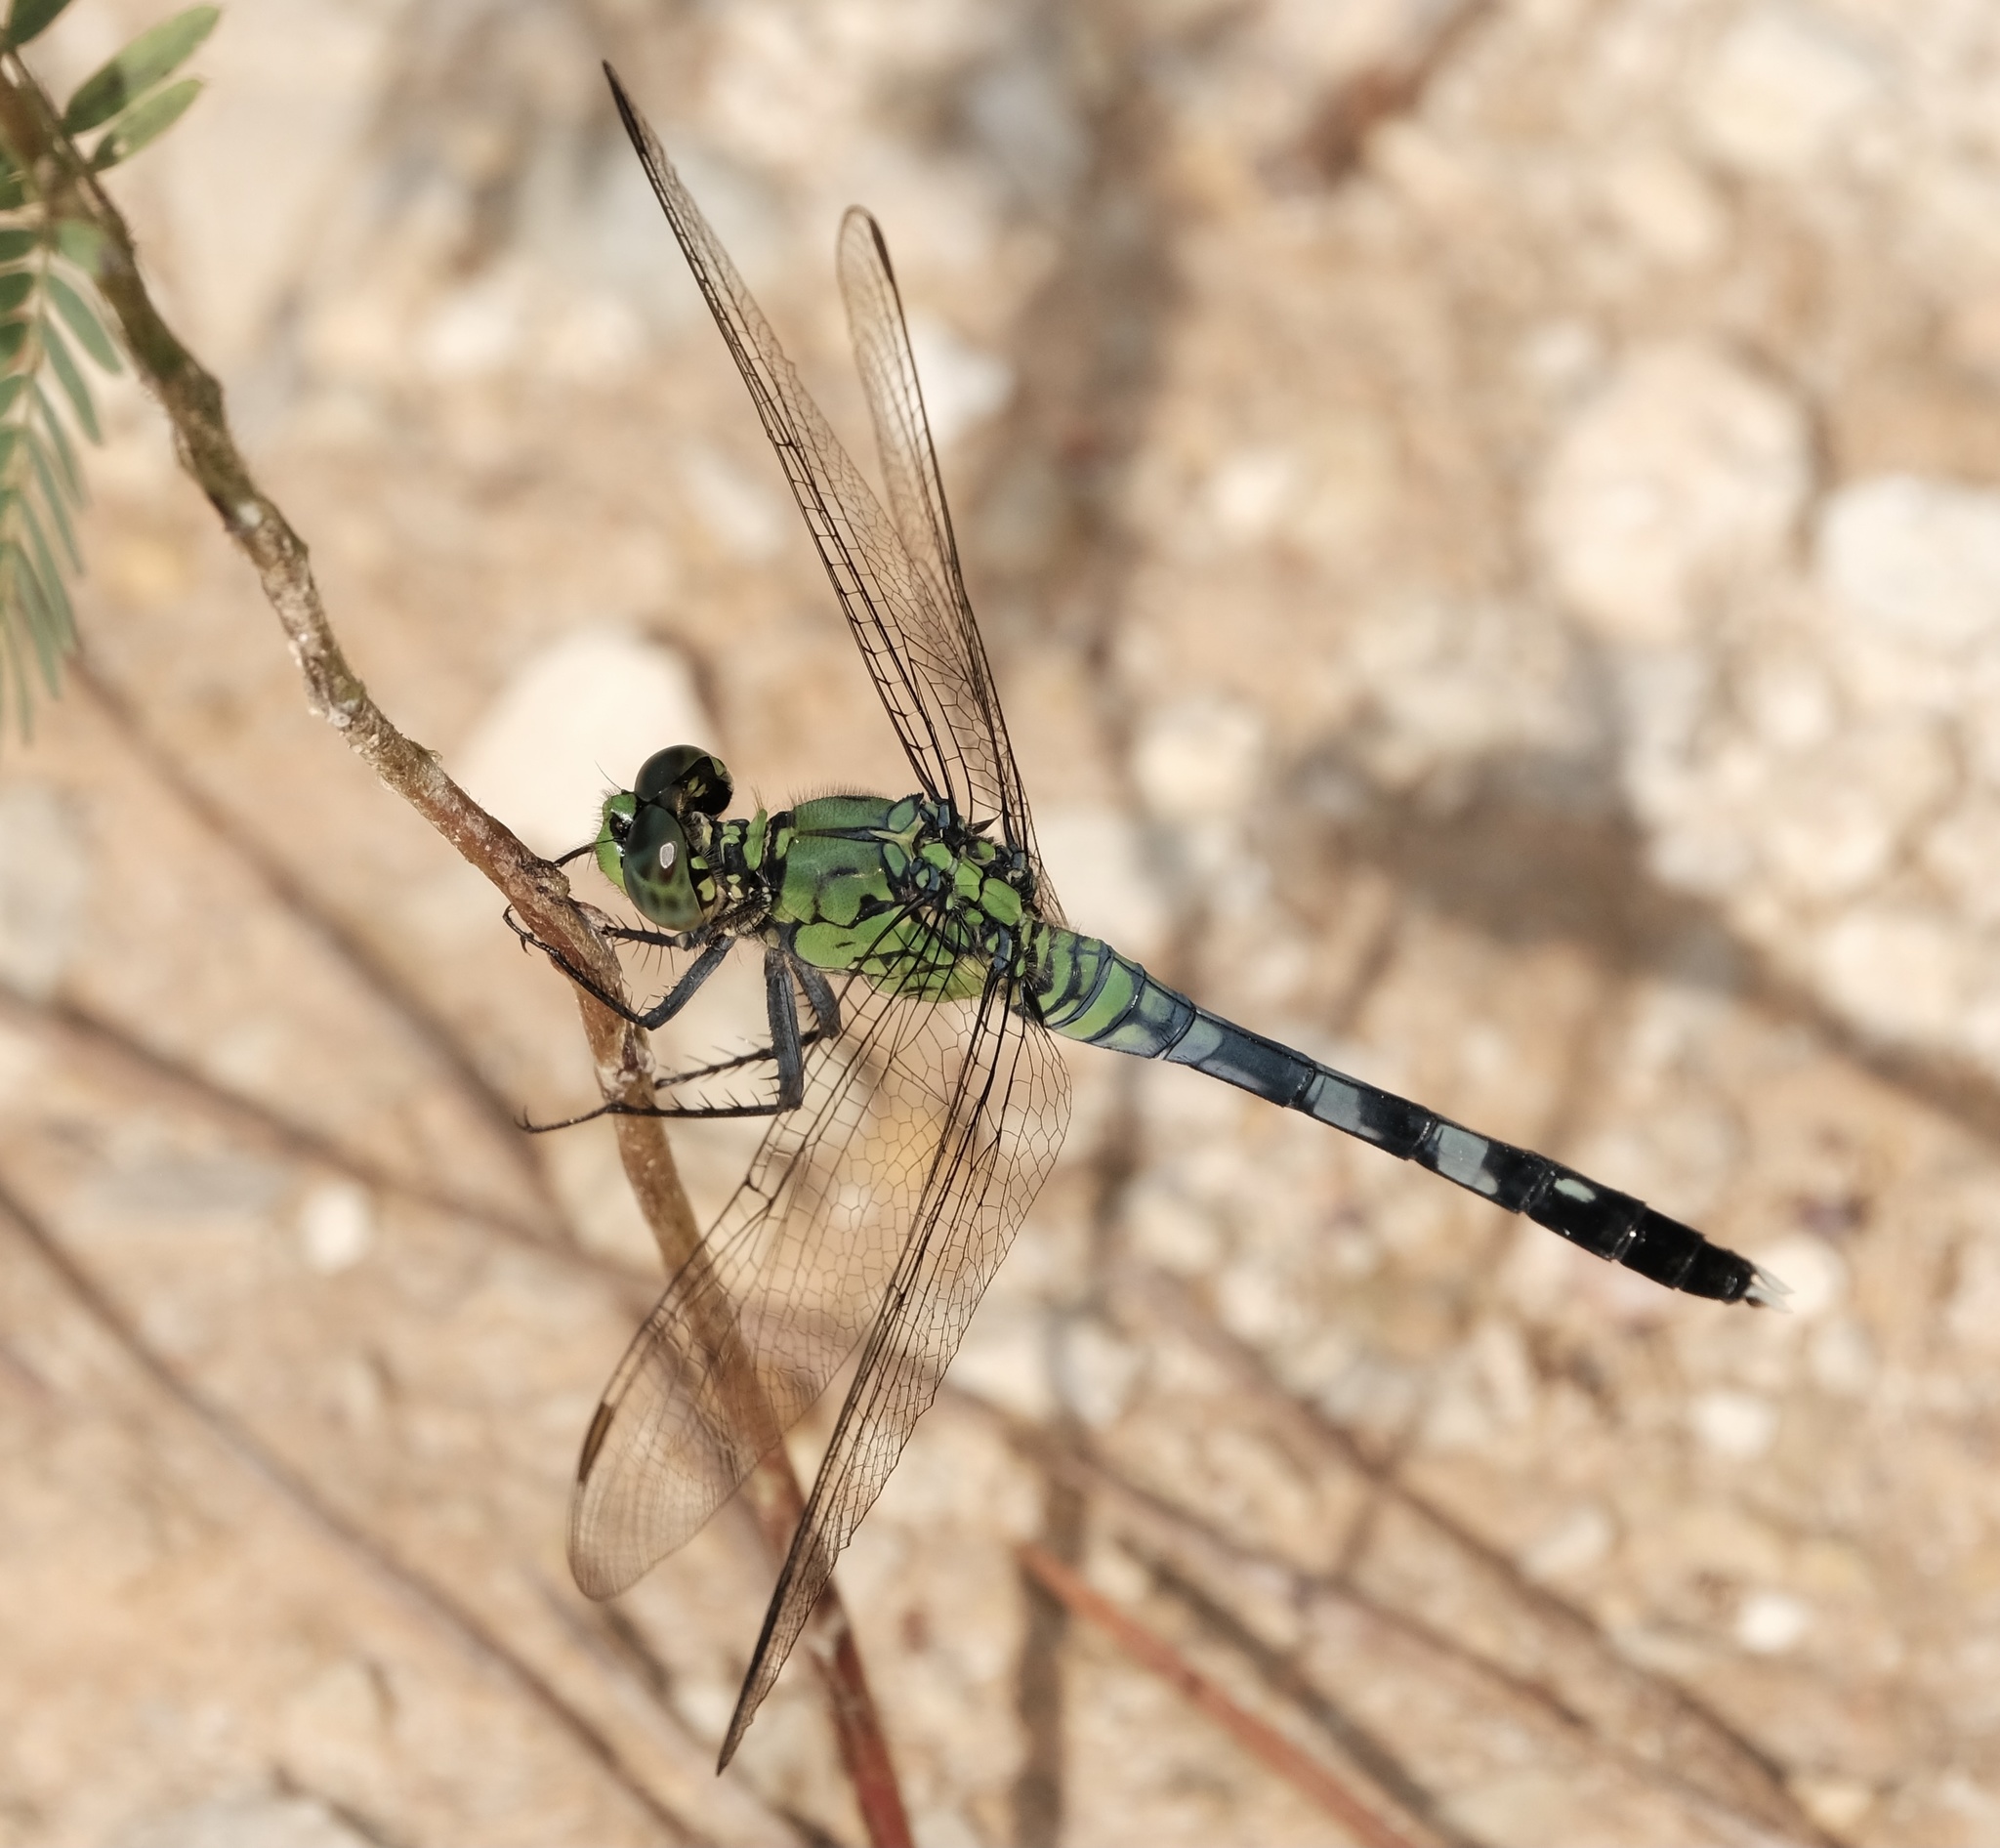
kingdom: Animalia
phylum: Arthropoda
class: Insecta
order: Odonata
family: Libellulidae
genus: Erythemis
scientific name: Erythemis simplicicollis
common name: Eastern pondhawk
